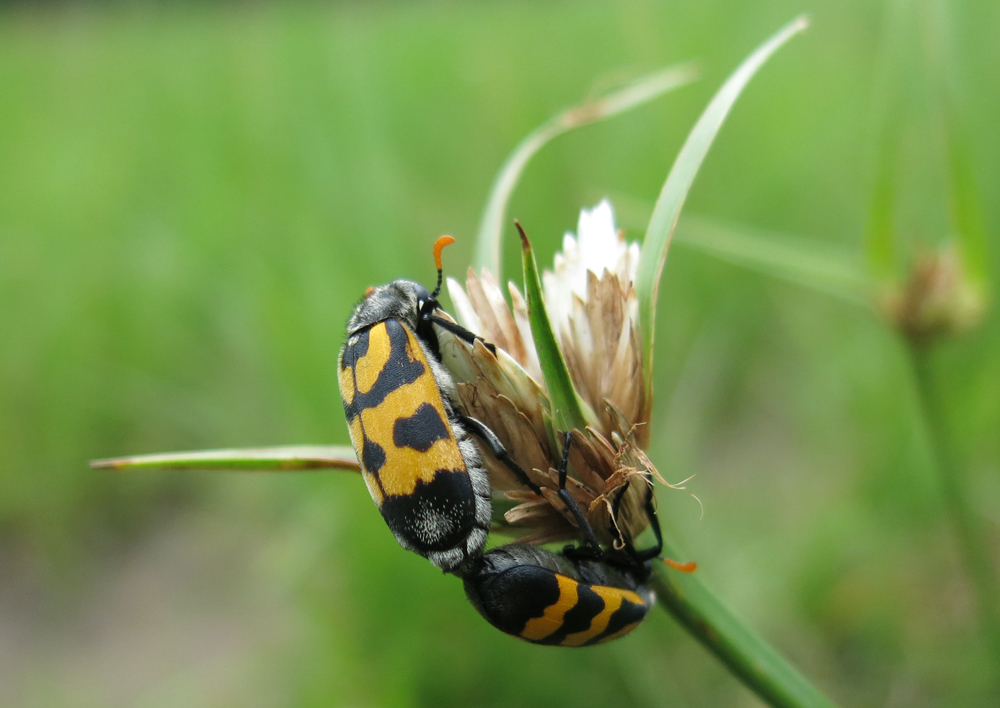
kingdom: Animalia
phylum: Arthropoda
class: Insecta
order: Coleoptera
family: Meloidae
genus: Meloe
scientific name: Meloe lunata
